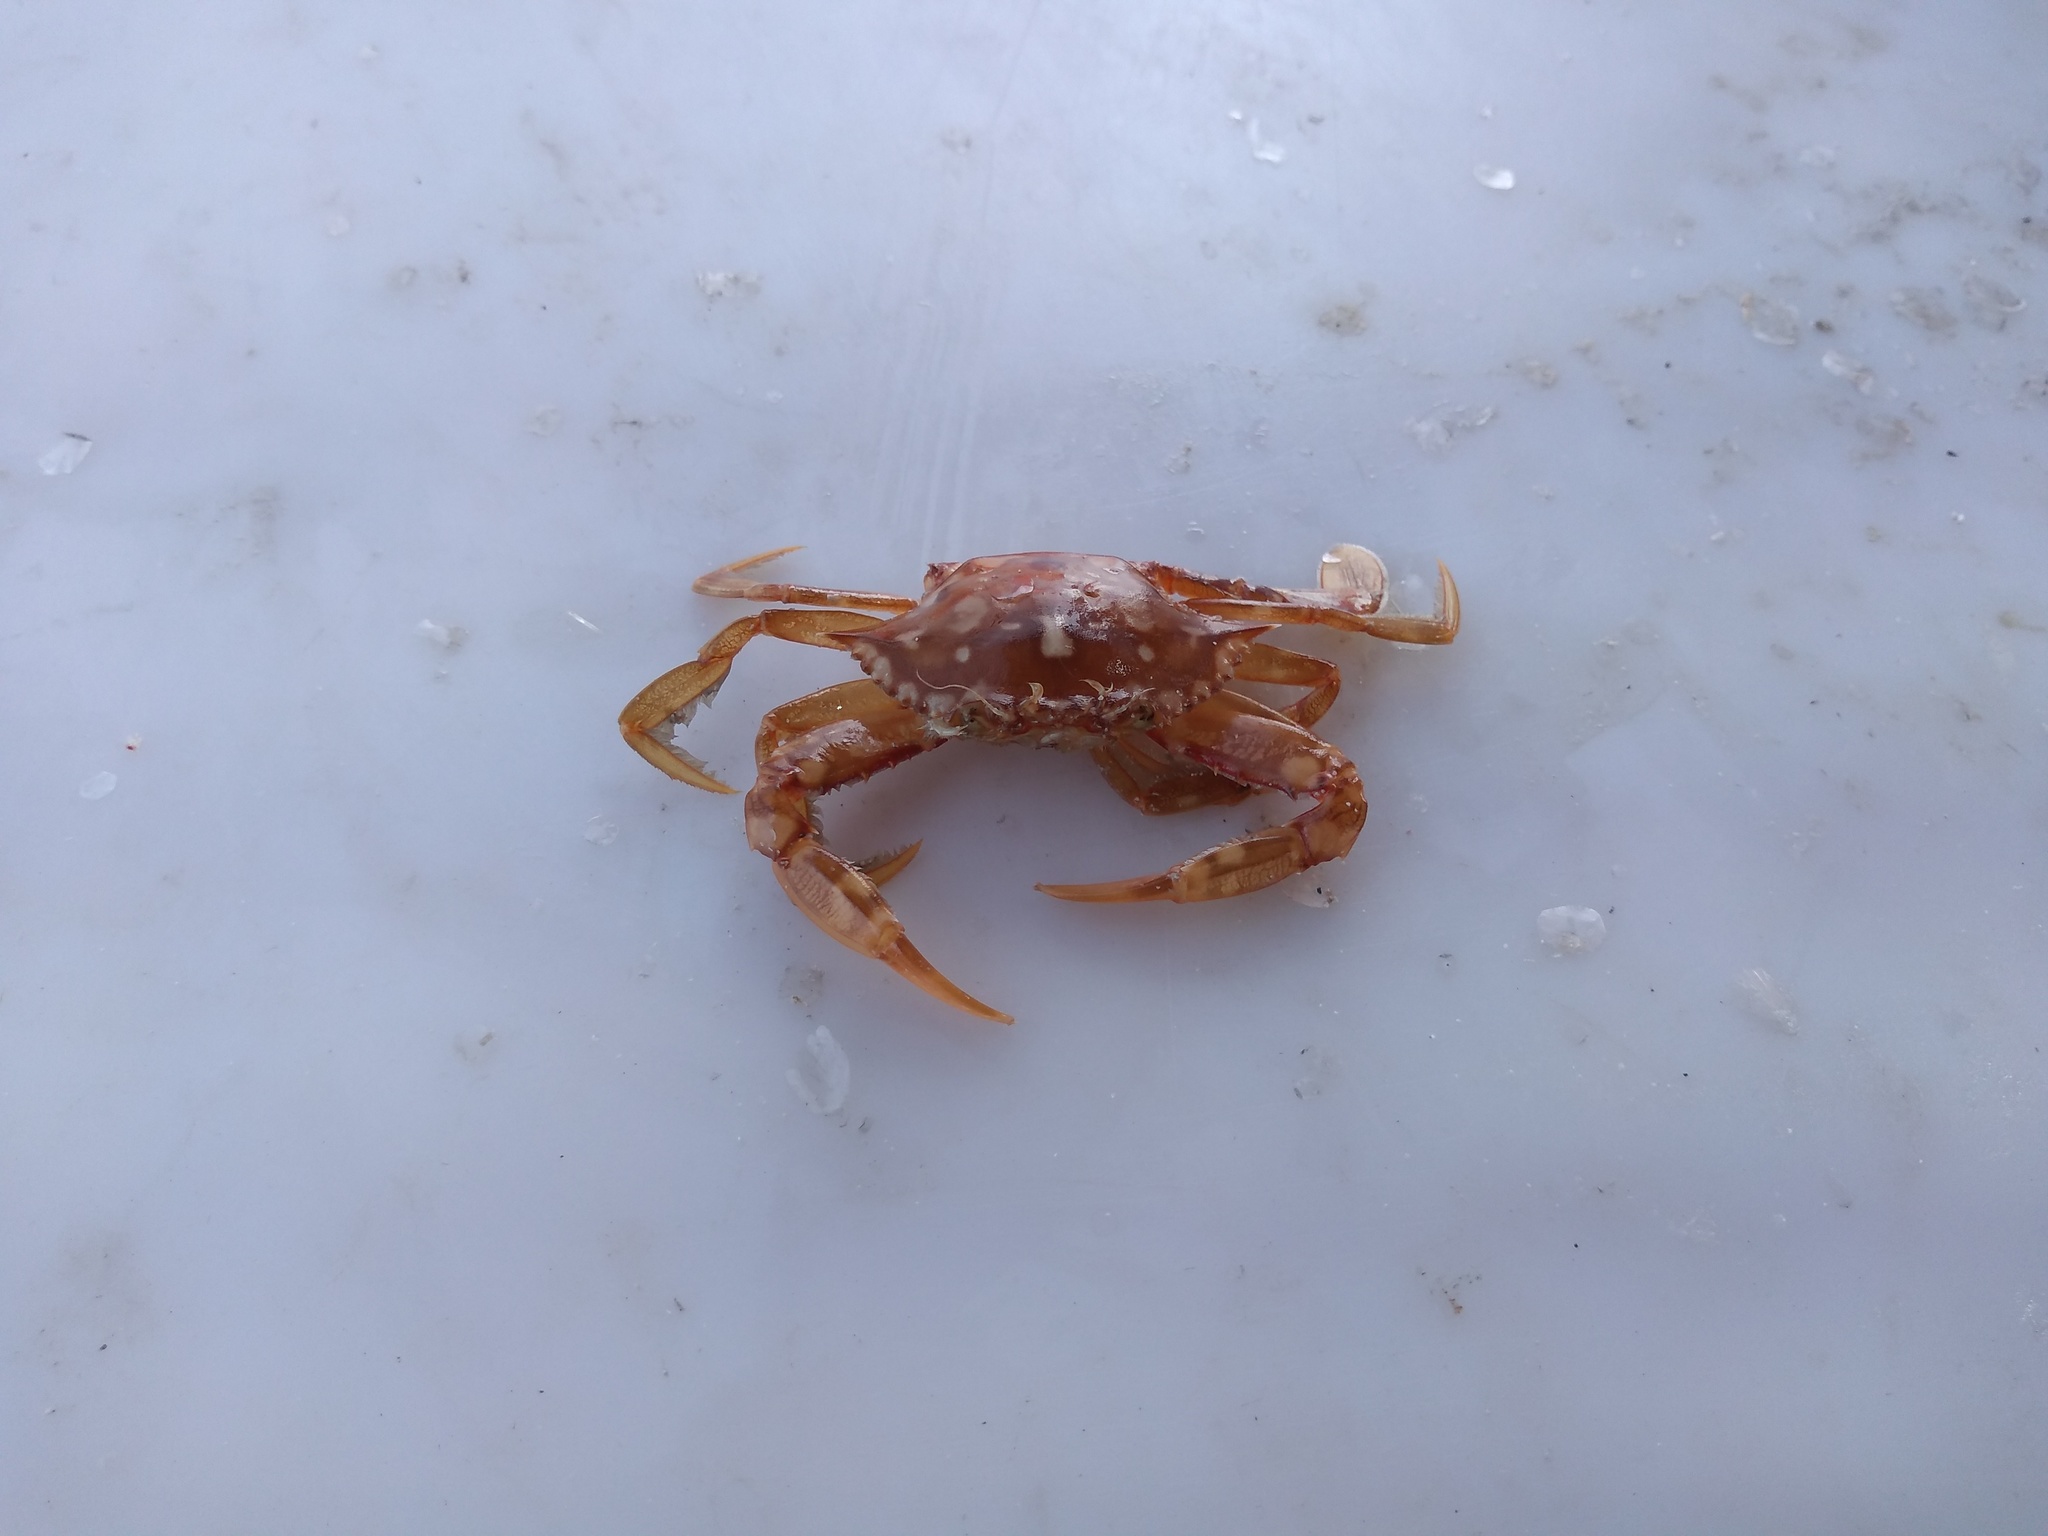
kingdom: Animalia
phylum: Arthropoda
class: Malacostraca
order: Decapoda
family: Portunidae
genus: Portunus
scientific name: Portunus sayi
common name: Sargassum crab
